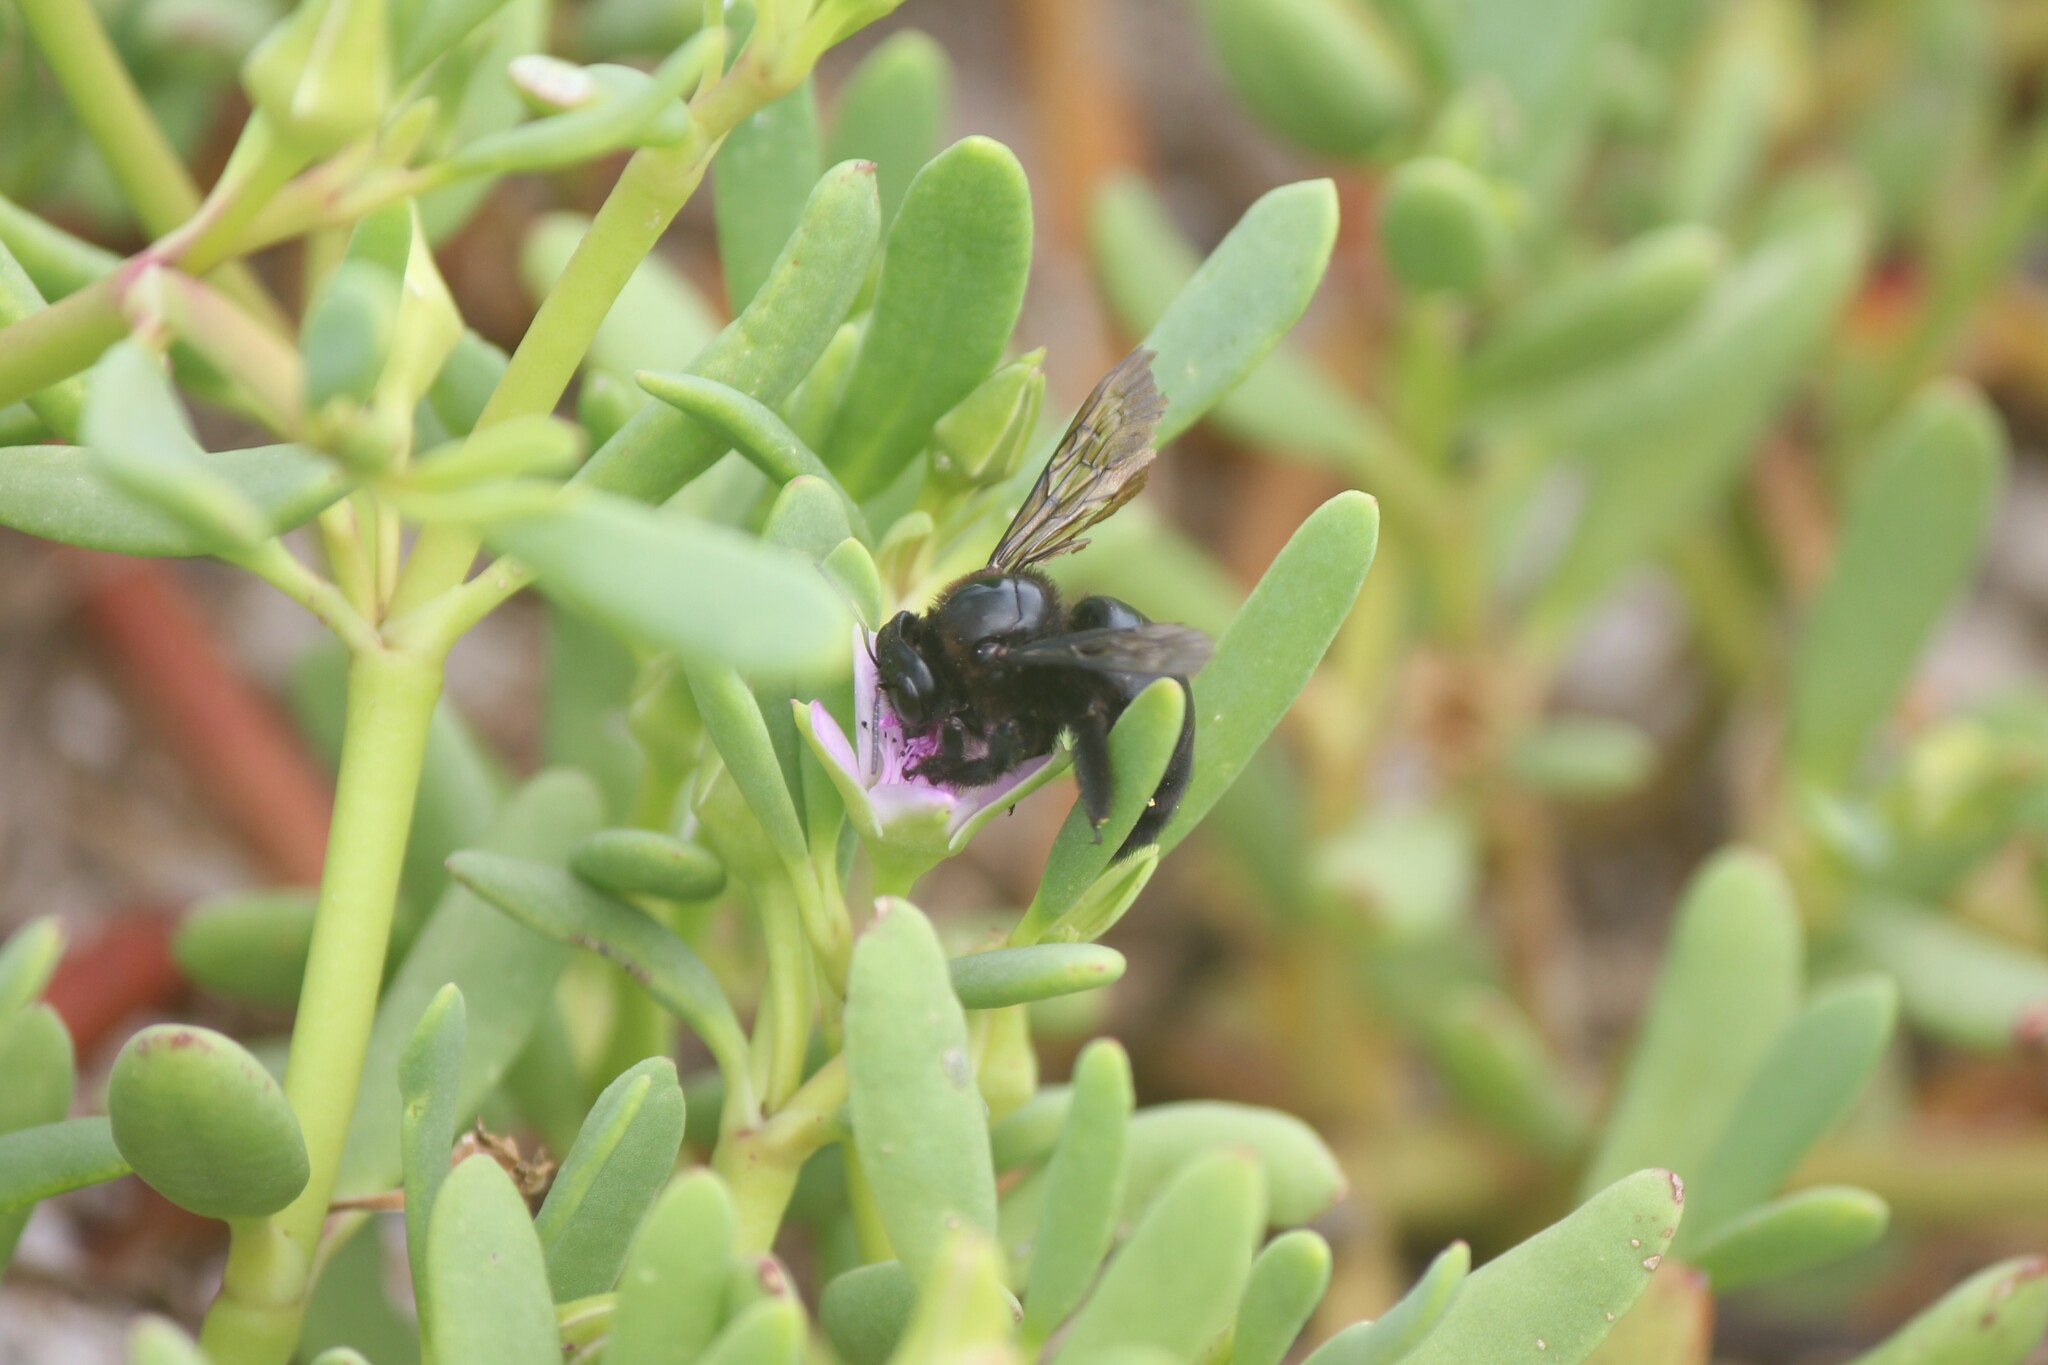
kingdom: Animalia
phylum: Arthropoda
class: Insecta
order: Hymenoptera
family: Apidae
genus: Xylocopa
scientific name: Xylocopa darwini
